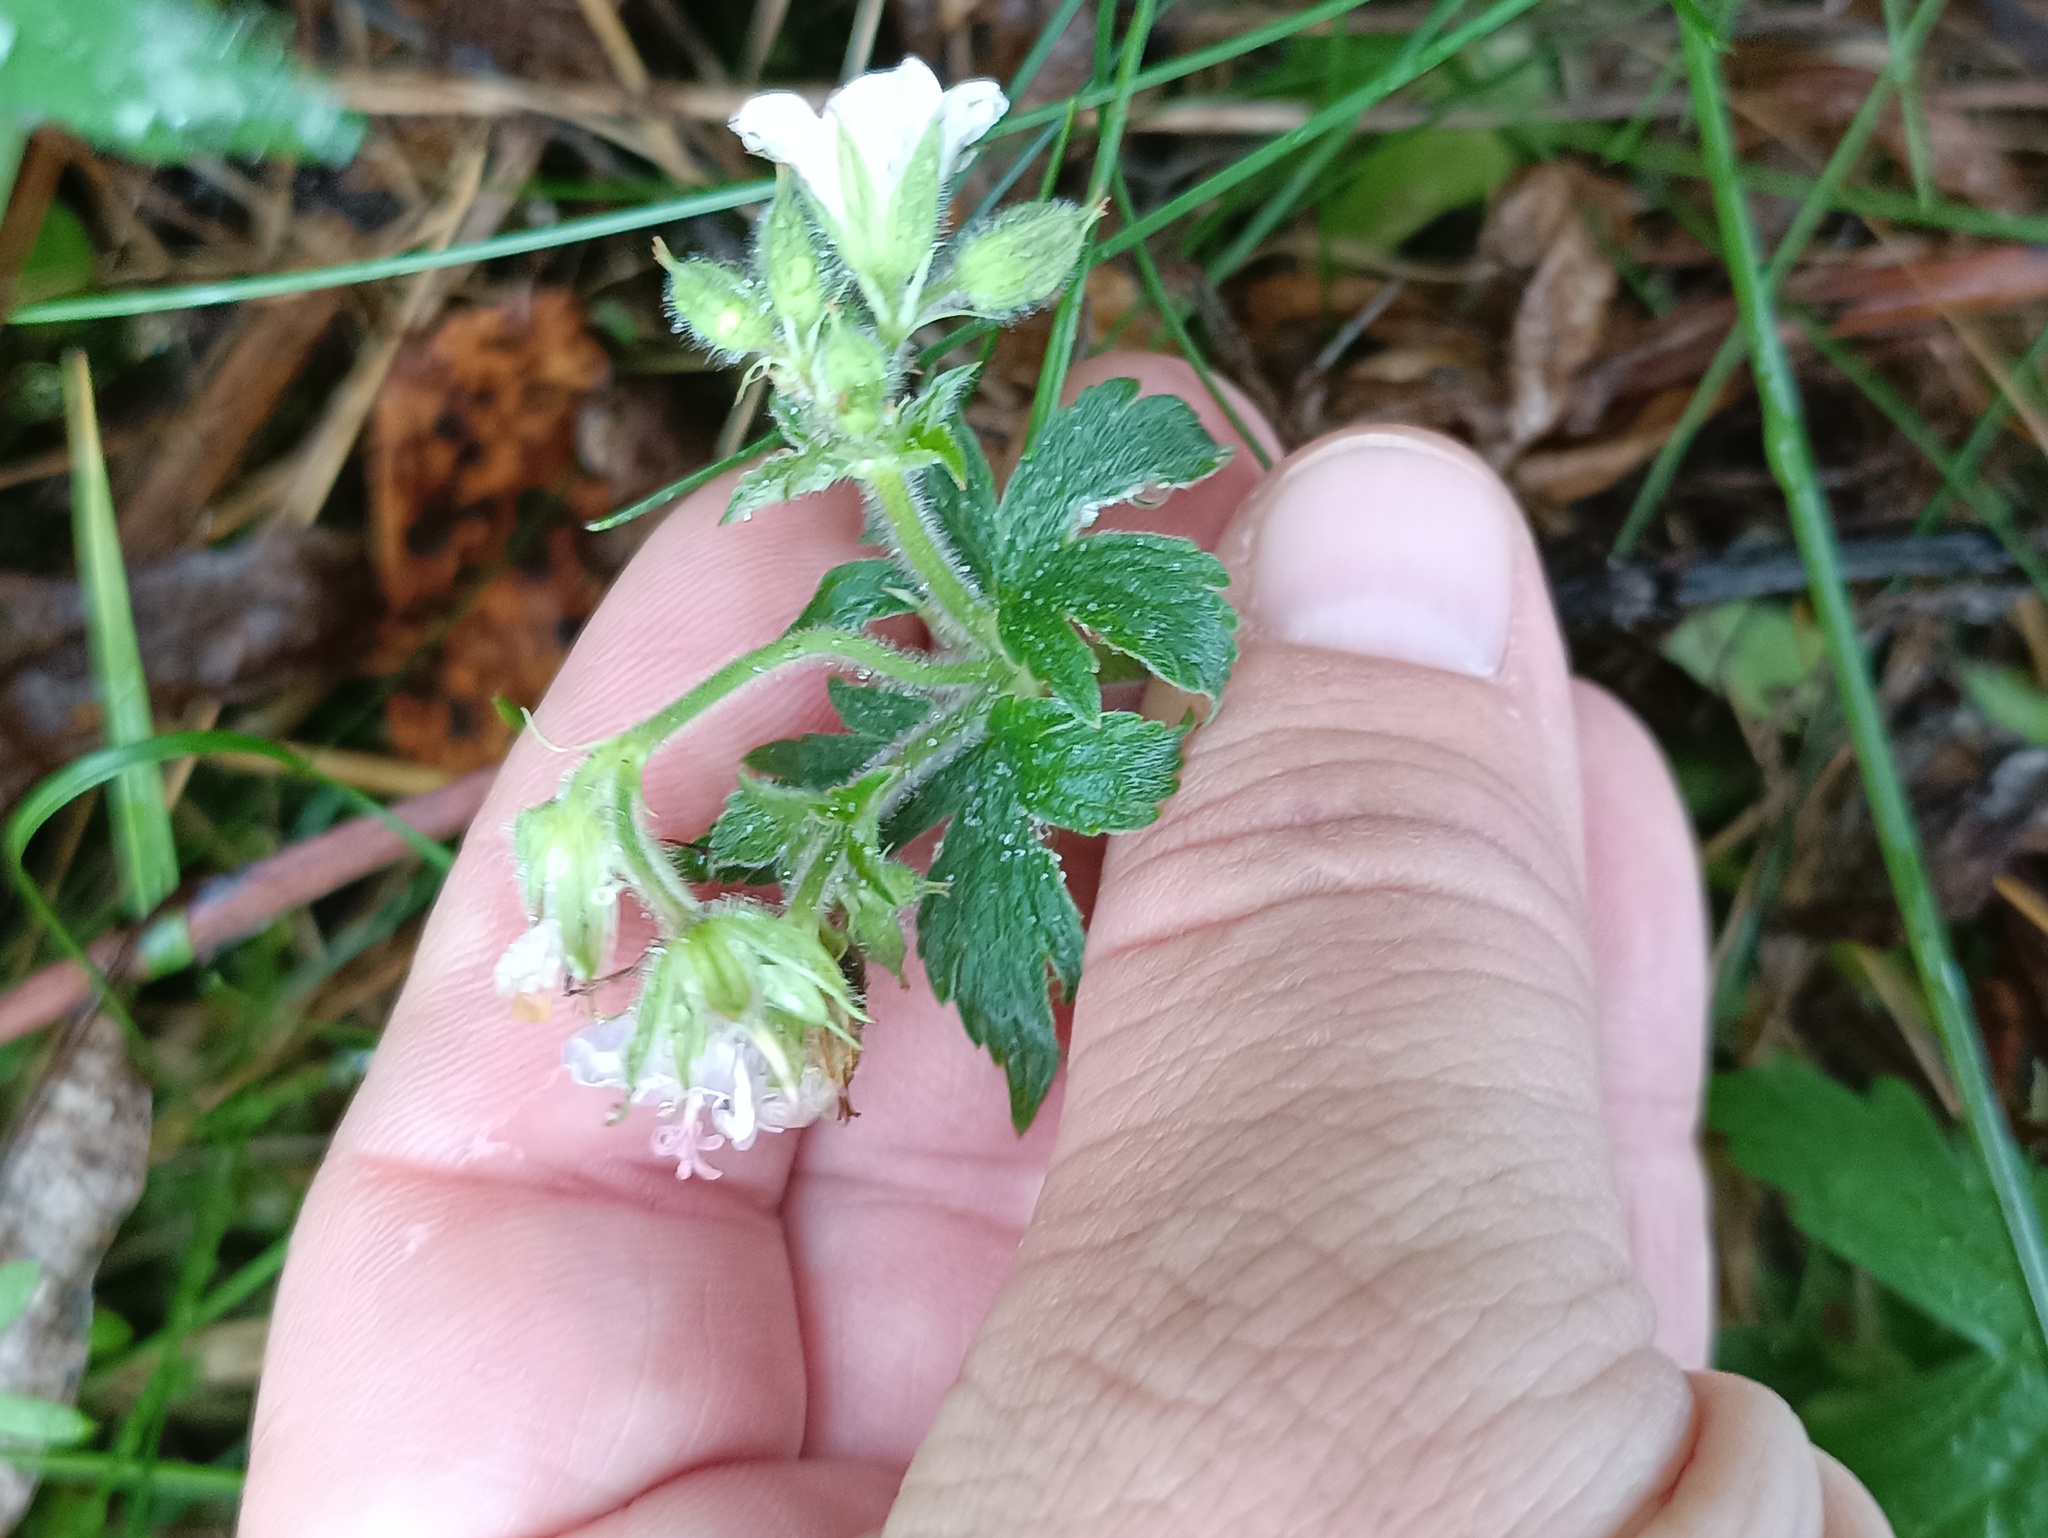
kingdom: Plantae
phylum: Tracheophyta
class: Magnoliopsida
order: Geraniales
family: Geraniaceae
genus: Geranium
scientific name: Geranium sylvaticum
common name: Wood crane's-bill
